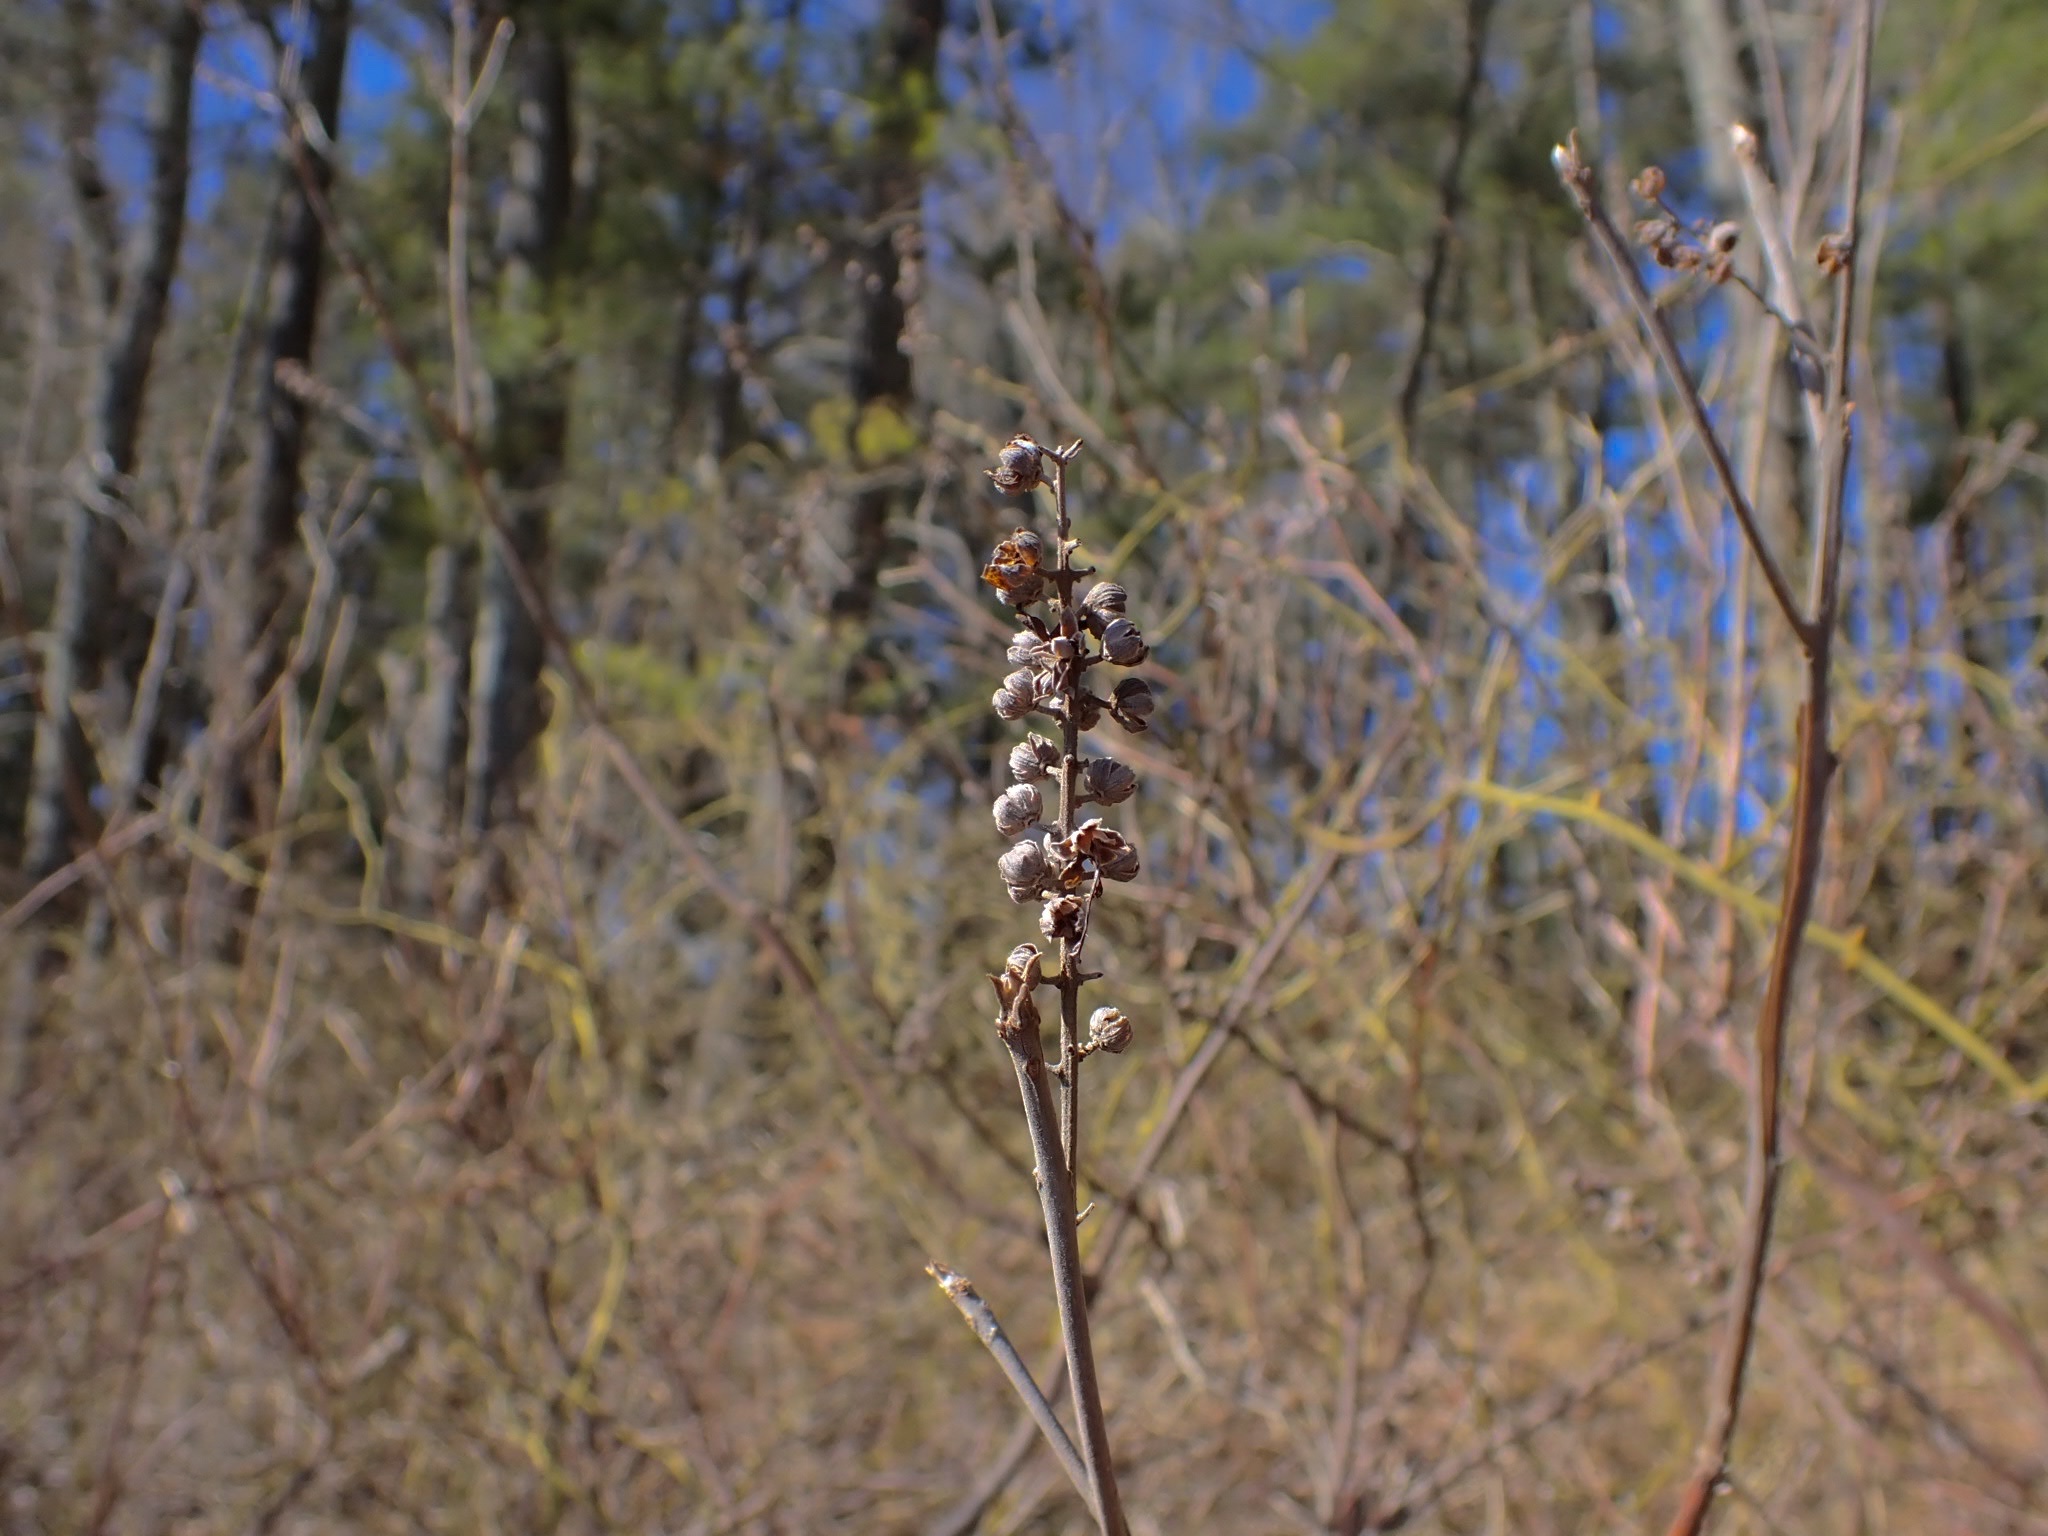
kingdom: Plantae
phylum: Tracheophyta
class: Magnoliopsida
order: Ericales
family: Clethraceae
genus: Clethra
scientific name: Clethra alnifolia
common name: Sweet pepperbush
